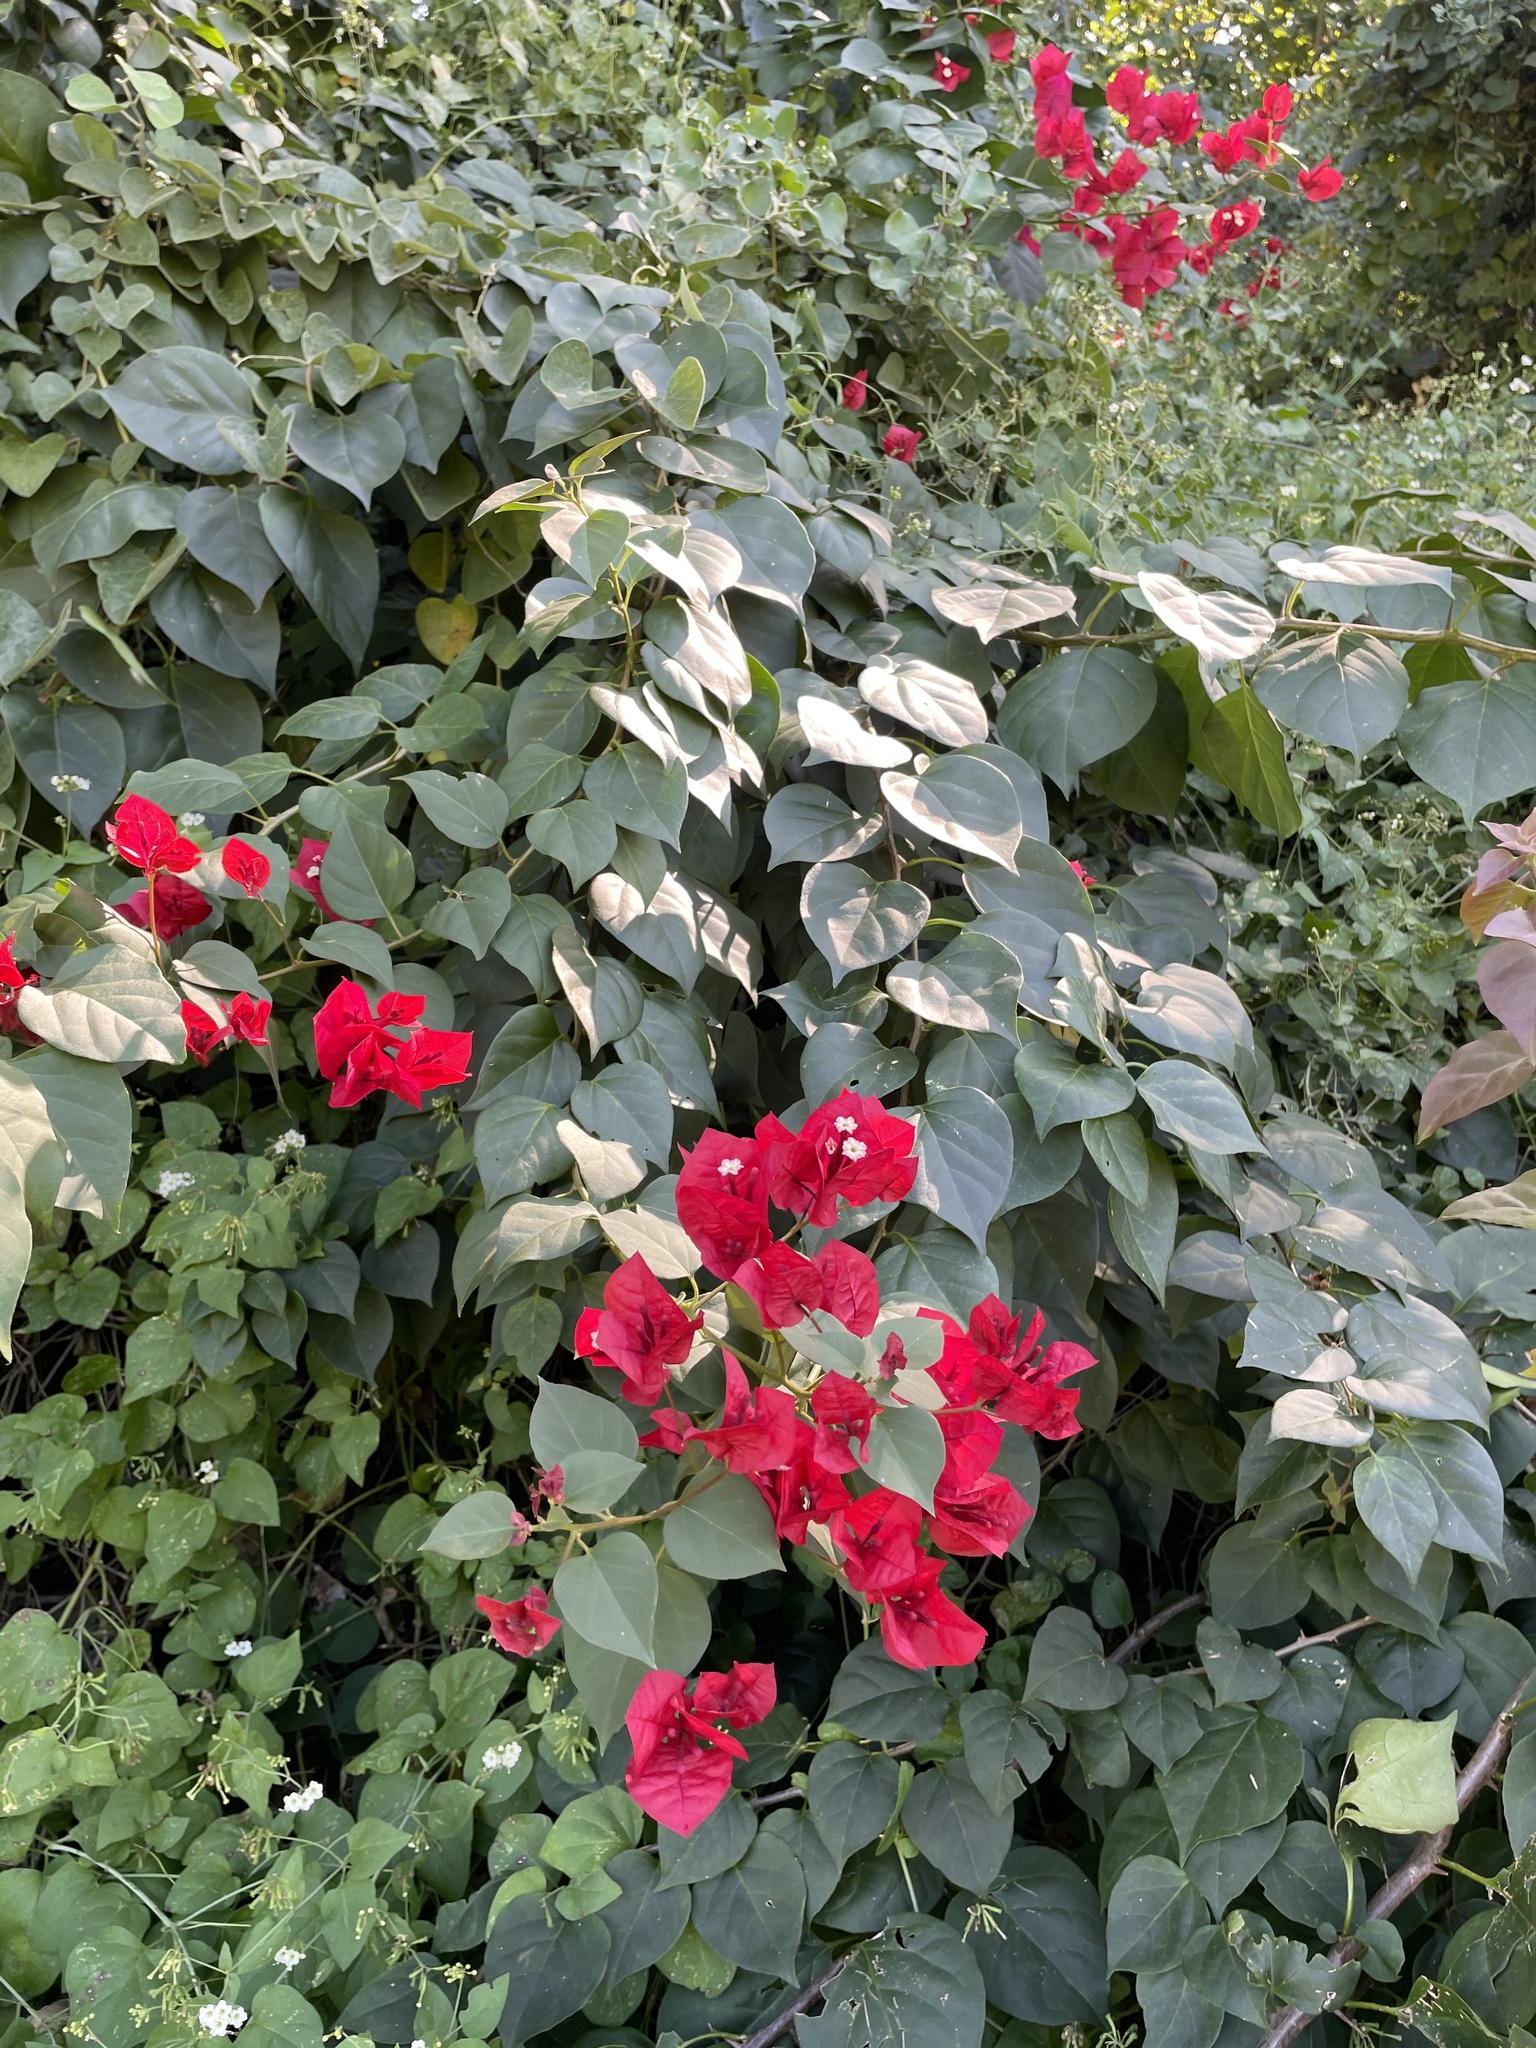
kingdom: Plantae
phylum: Tracheophyta
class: Magnoliopsida
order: Caryophyllales
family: Nyctaginaceae
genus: Bougainvillea
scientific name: Bougainvillea buttiana
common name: Bougainvillea
